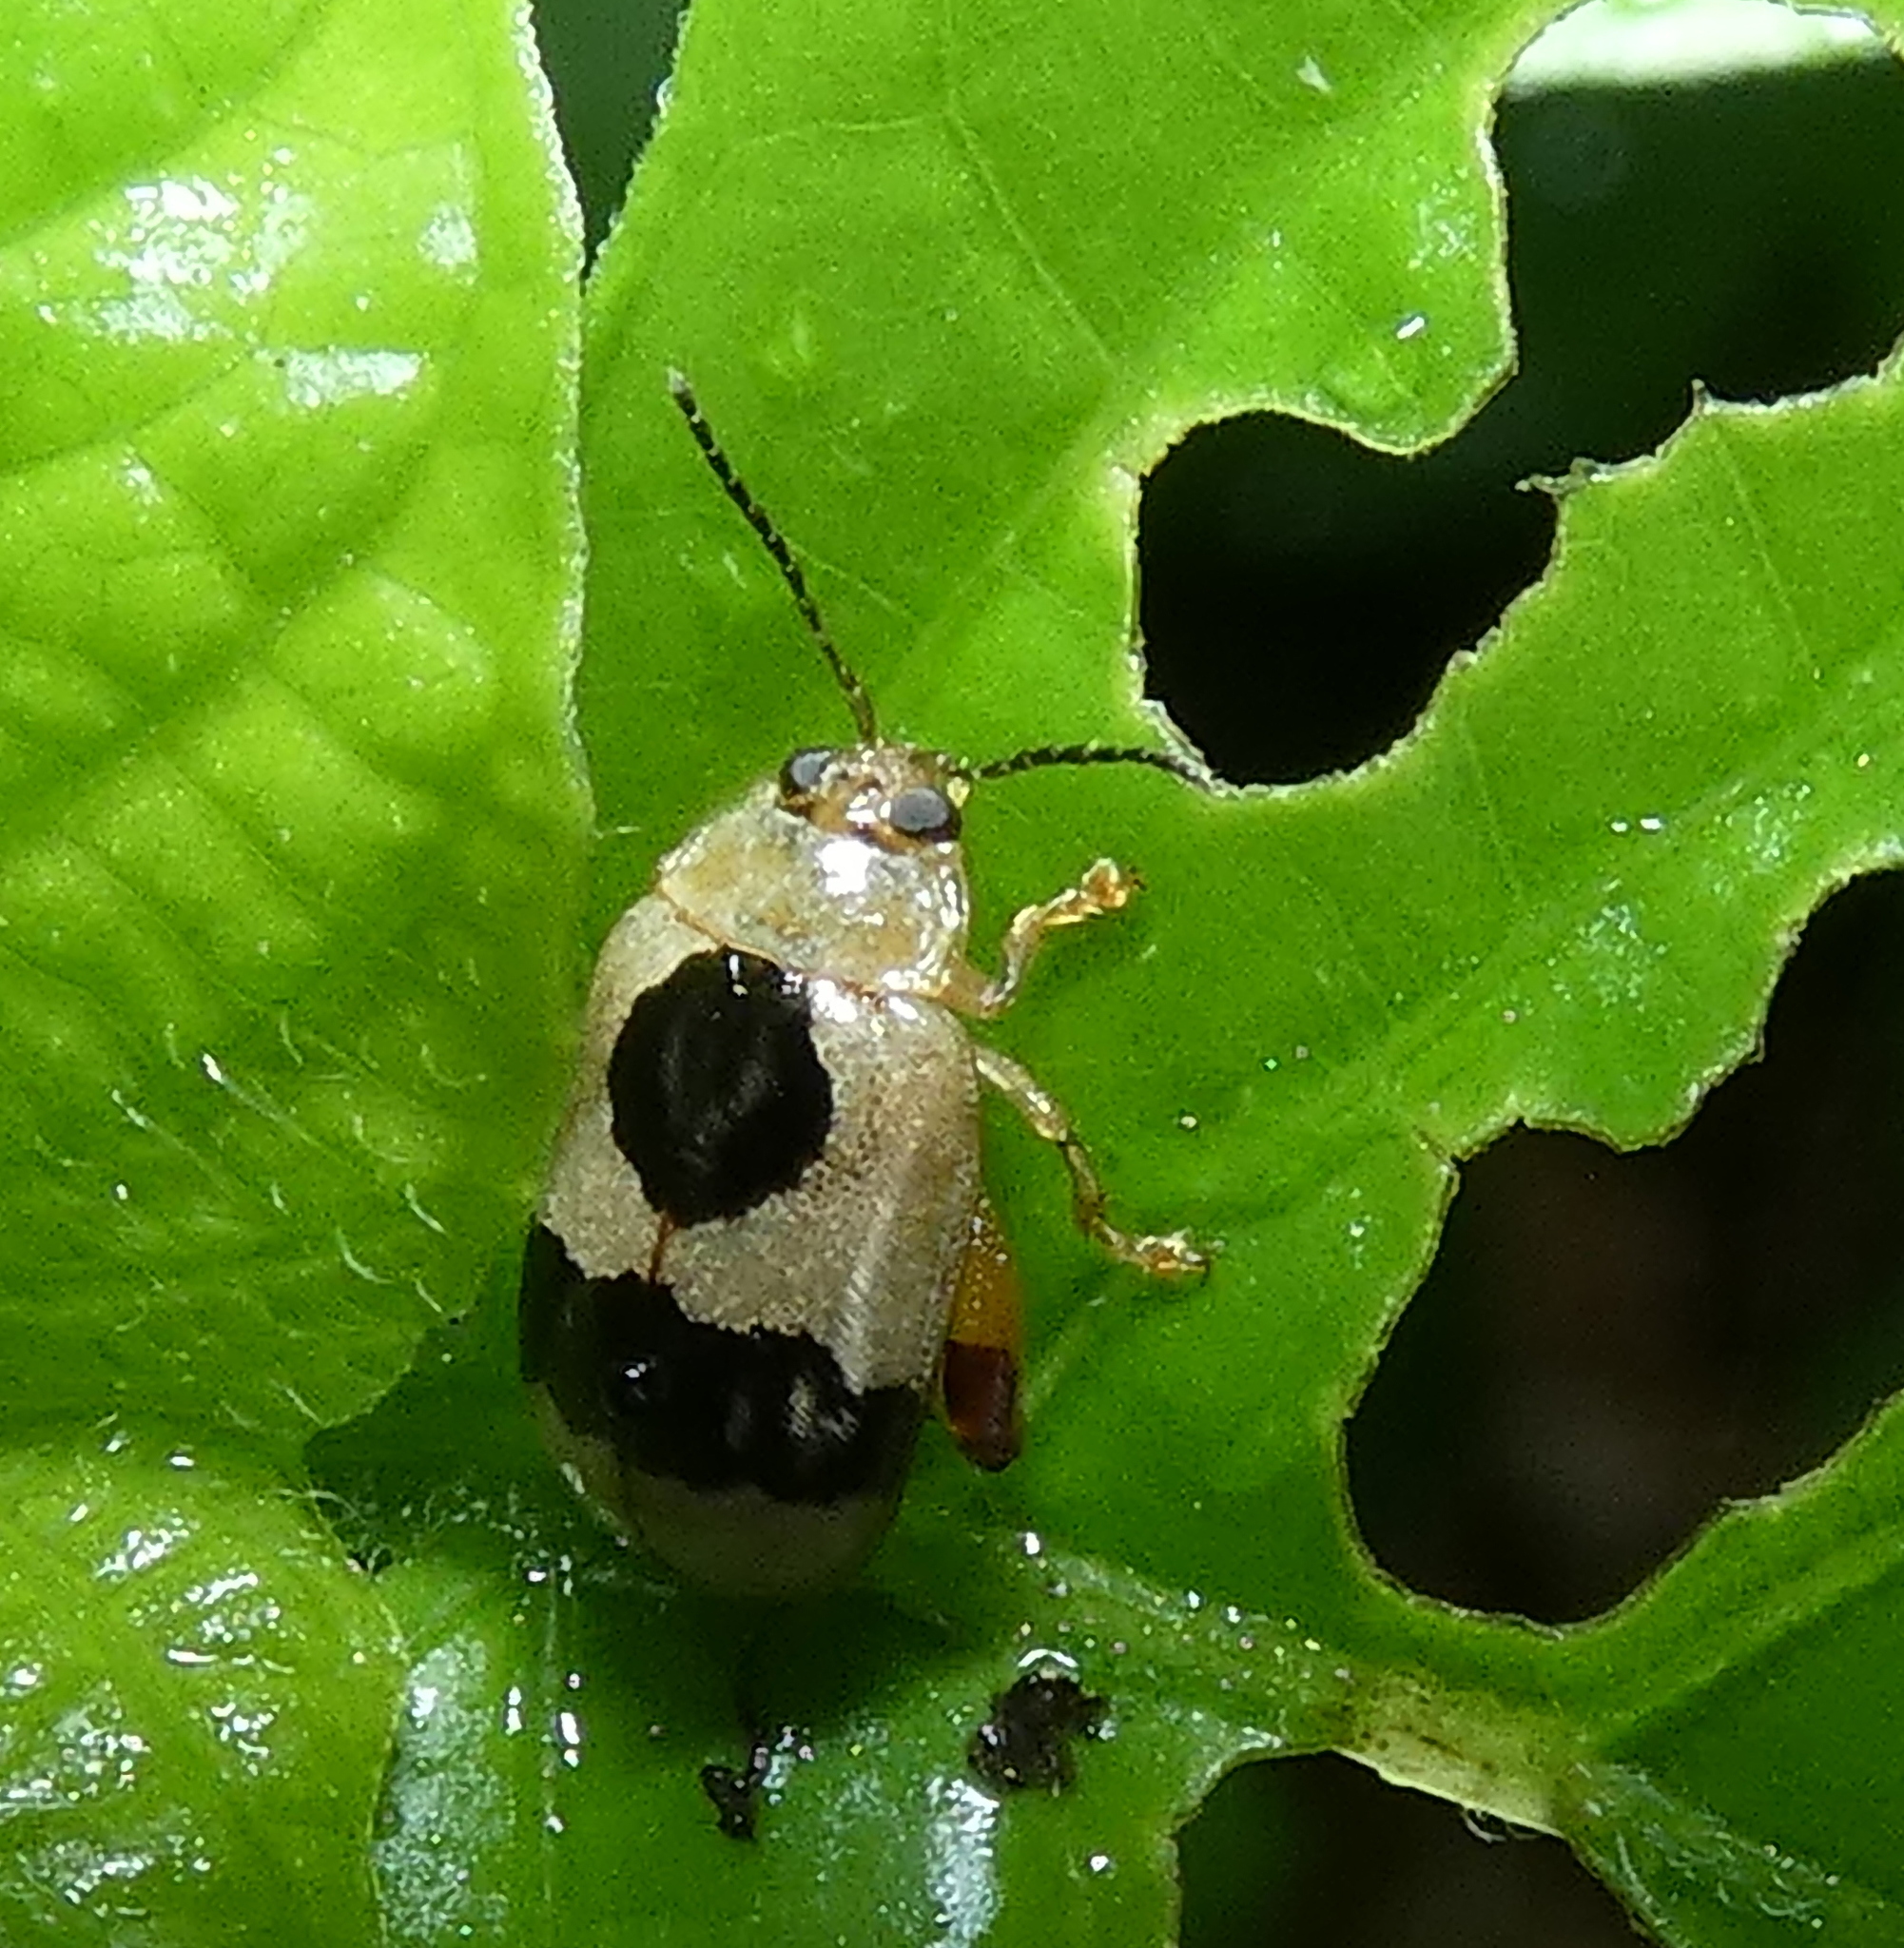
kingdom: Animalia
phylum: Arthropoda
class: Insecta
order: Coleoptera
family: Chrysomelidae
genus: Alagoasa
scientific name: Alagoasa
